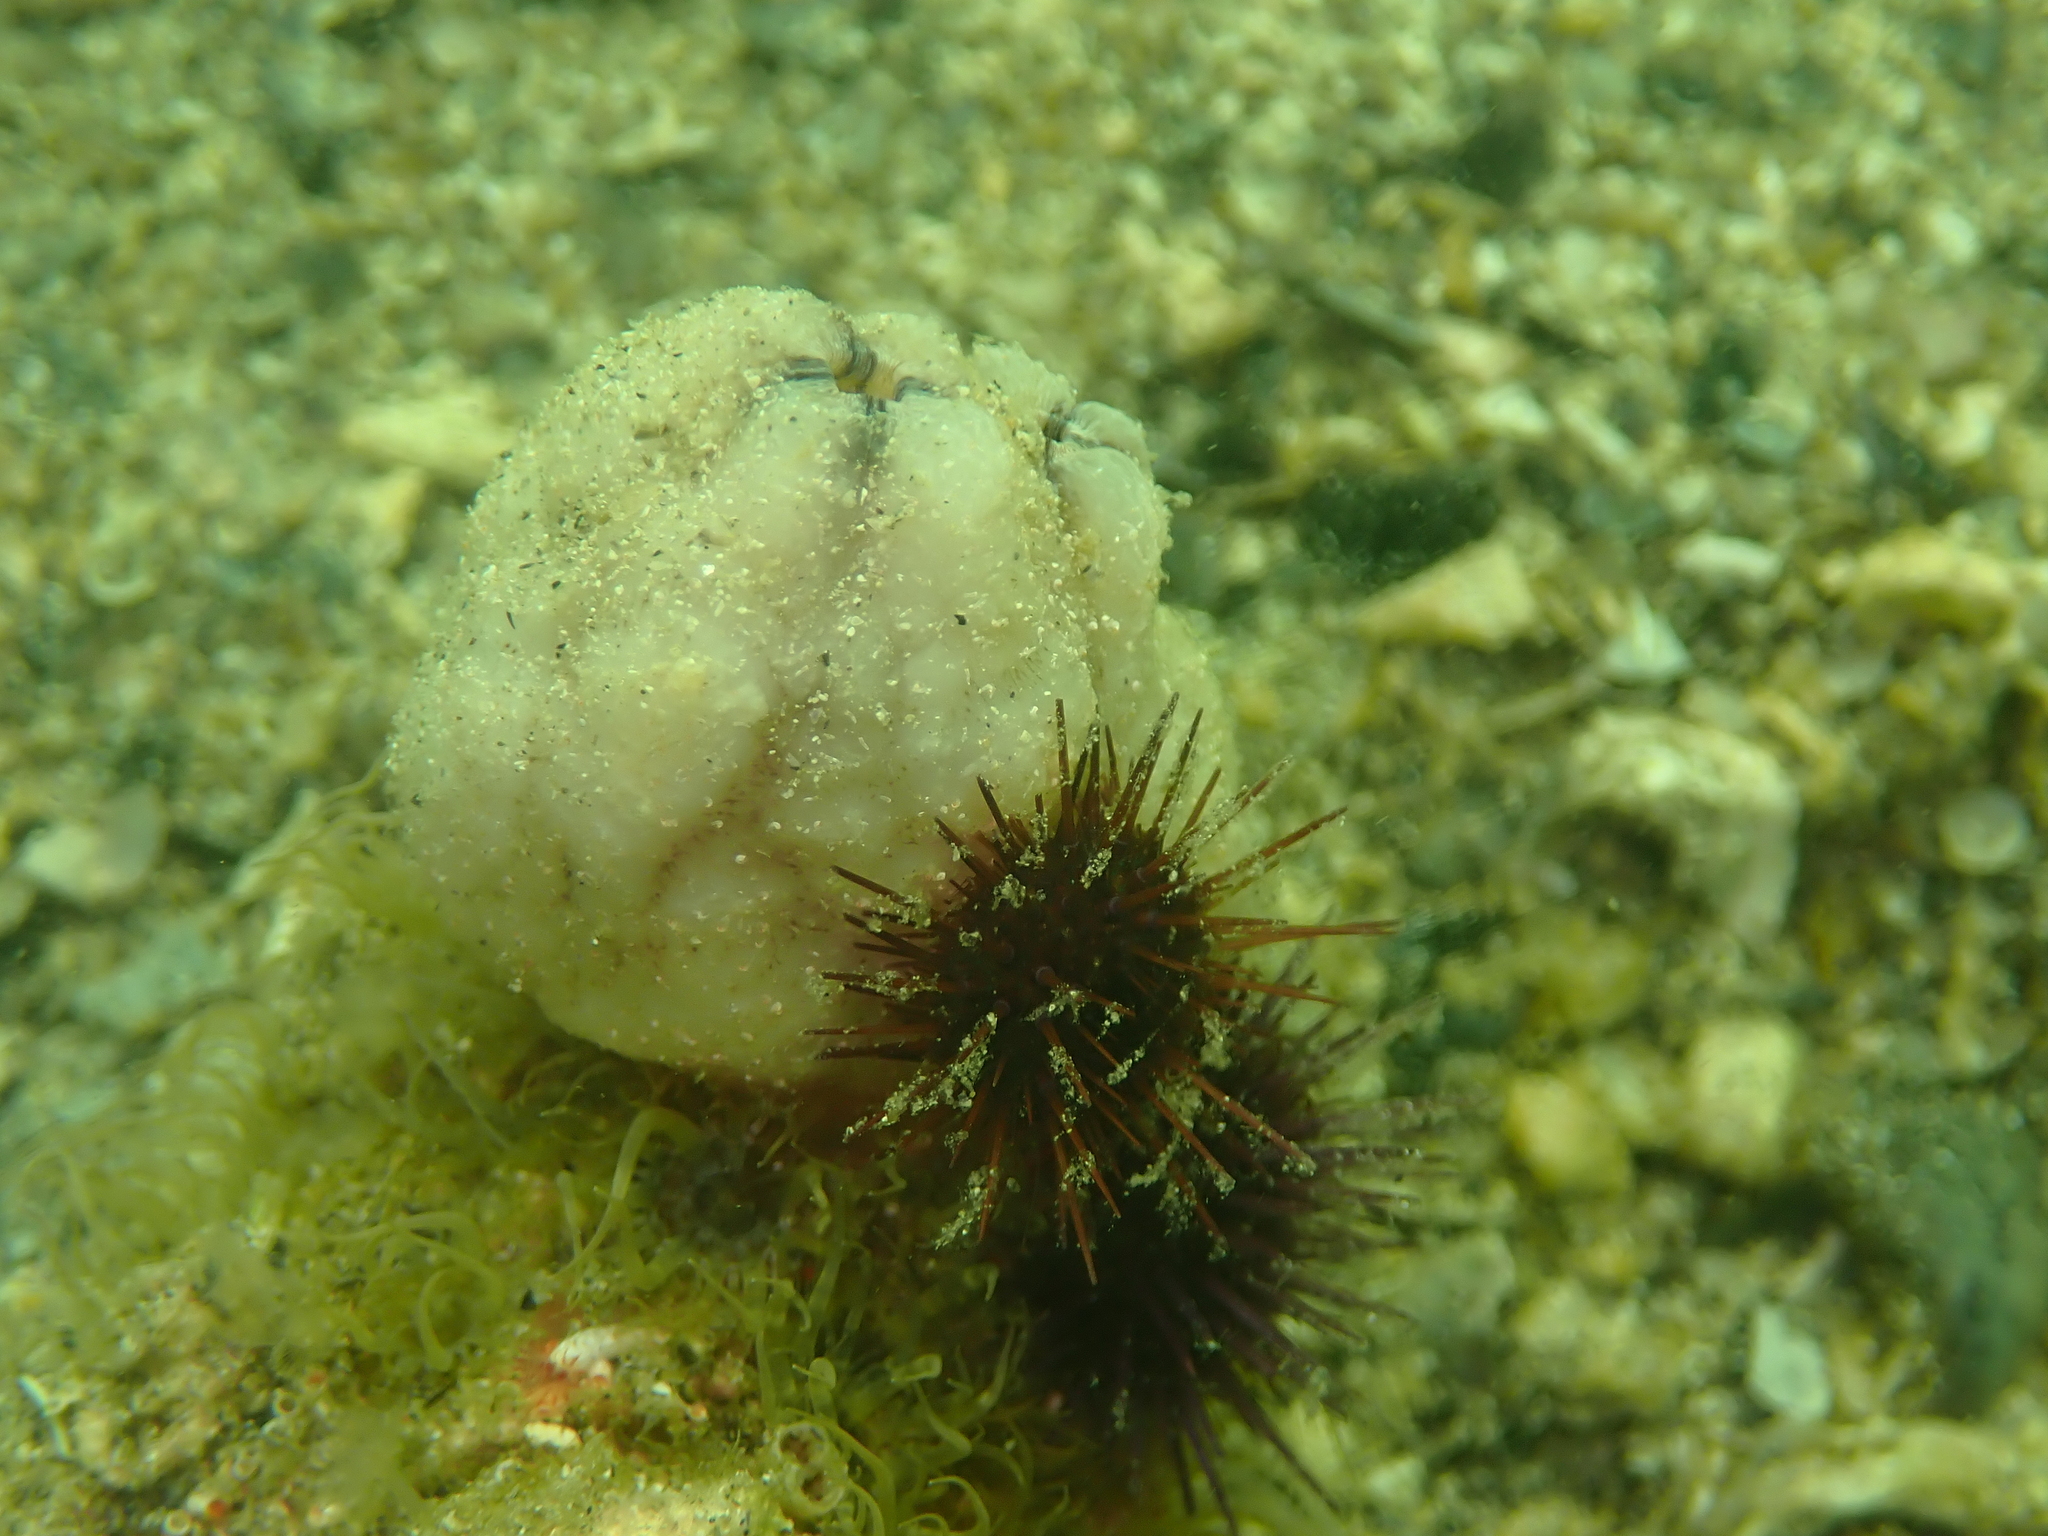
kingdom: Animalia
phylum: Chordata
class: Ascidiacea
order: Stolidobranchia
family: Styelidae
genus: Styela
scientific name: Styela plicata
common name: Pleated tunicate
